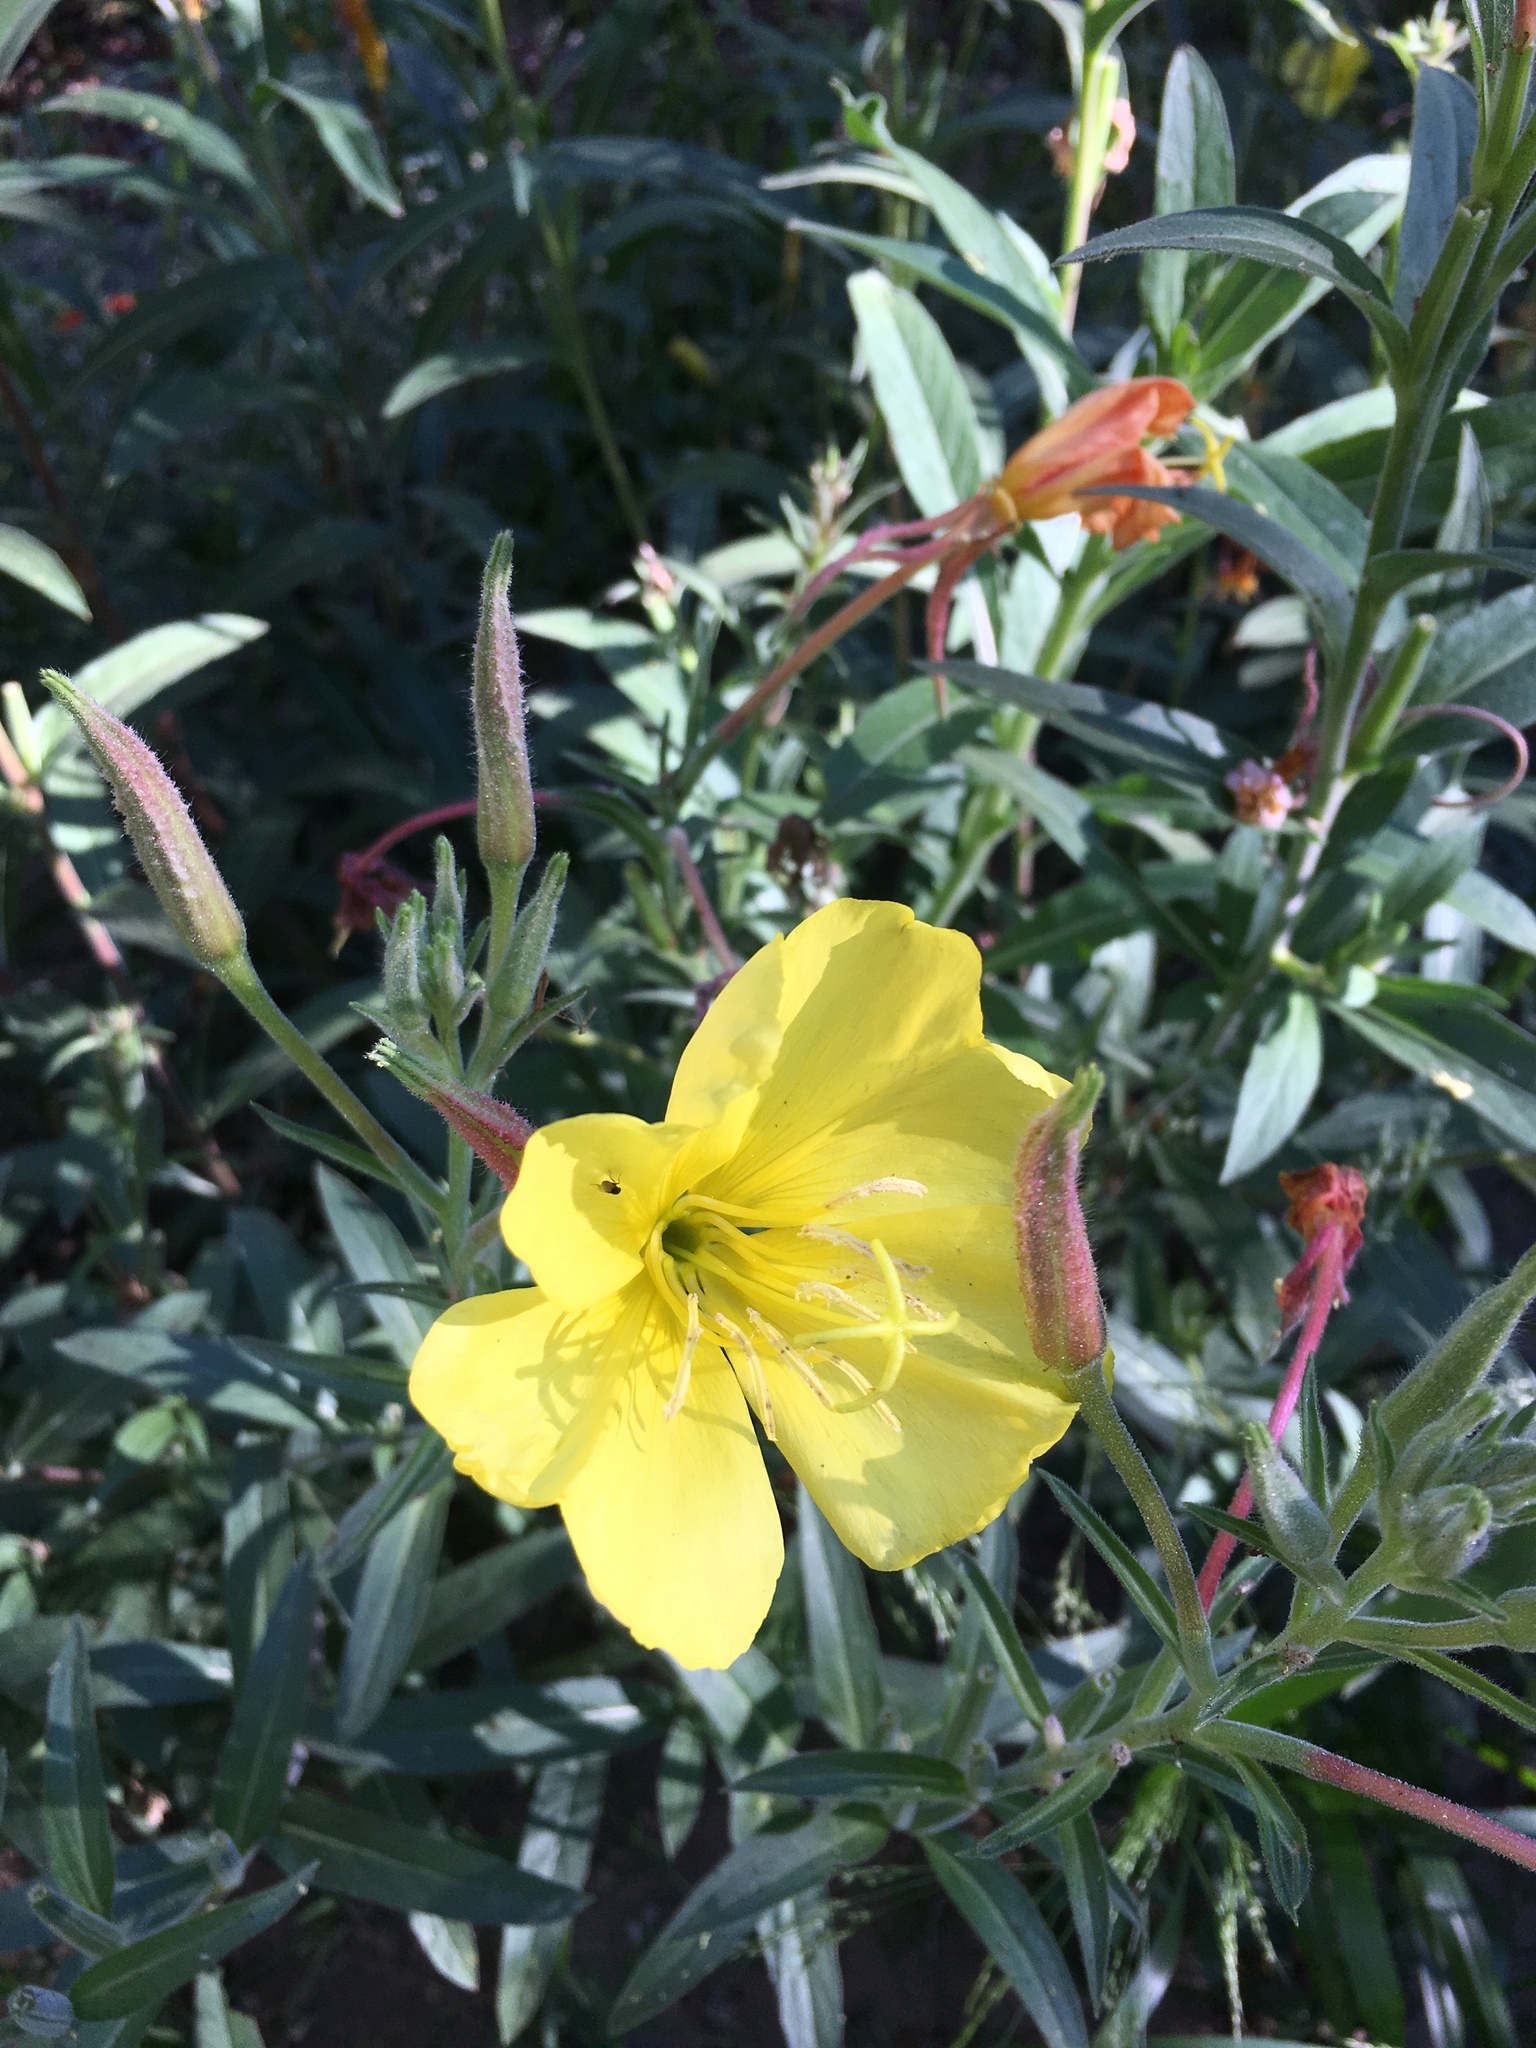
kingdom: Plantae
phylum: Tracheophyta
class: Magnoliopsida
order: Myrtales
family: Onagraceae
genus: Oenothera
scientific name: Oenothera elata
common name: Hooker's evening-primrose
